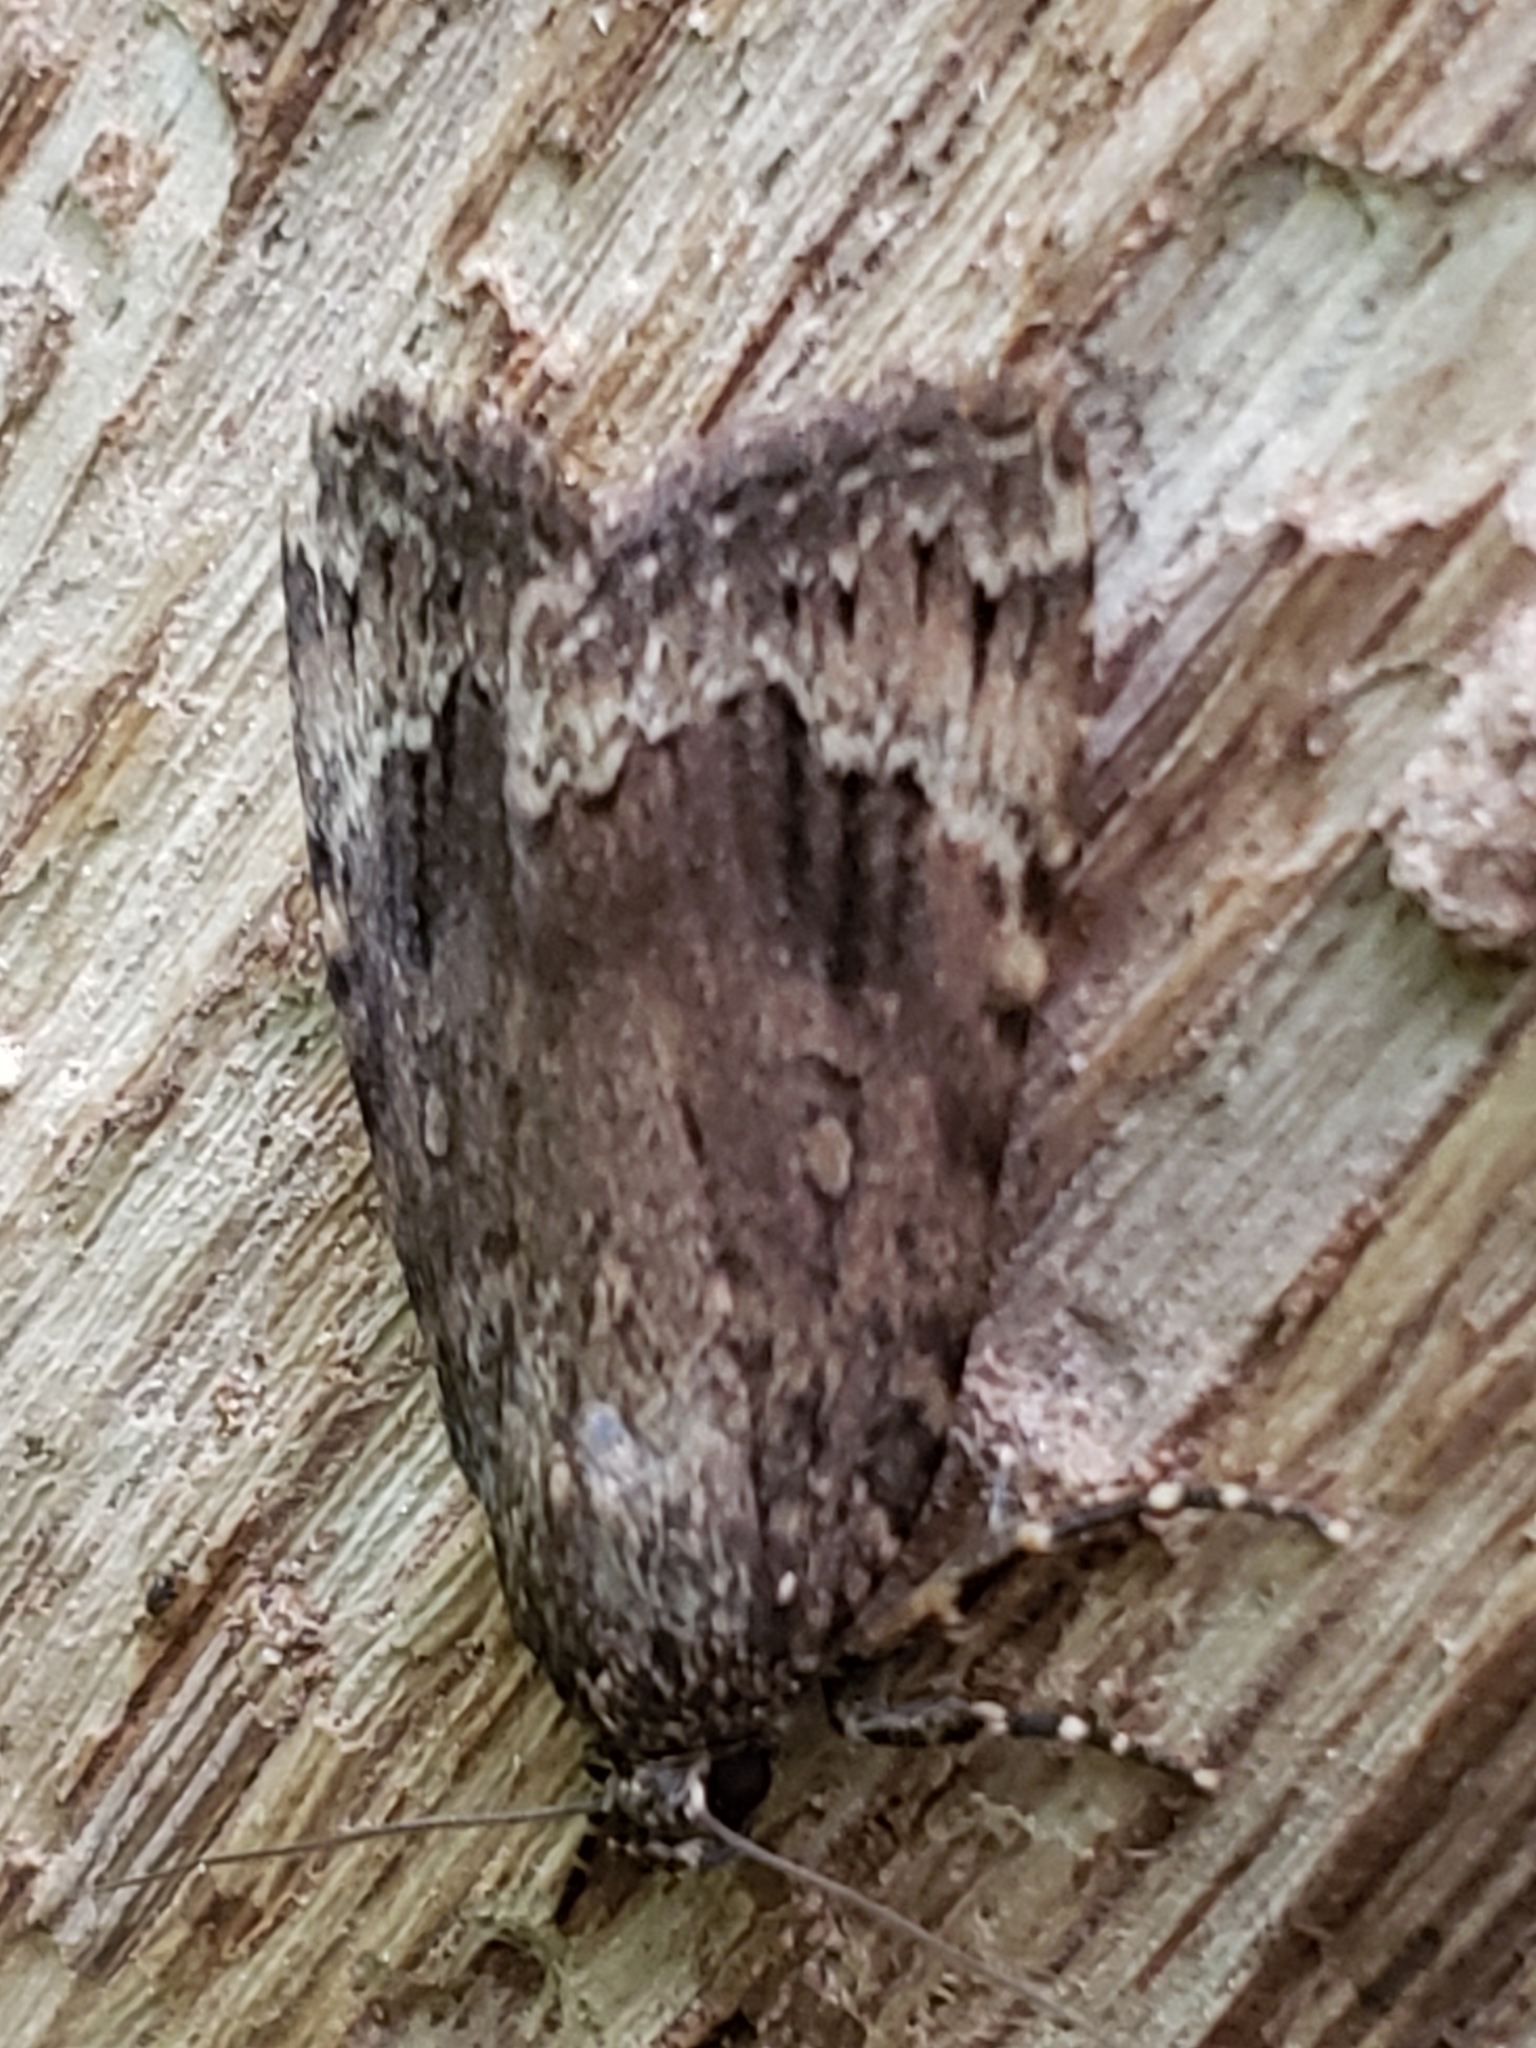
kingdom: Animalia
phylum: Arthropoda
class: Insecta
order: Lepidoptera
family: Noctuidae
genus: Amphipyra
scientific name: Amphipyra pyramidoides
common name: American copper underwing
